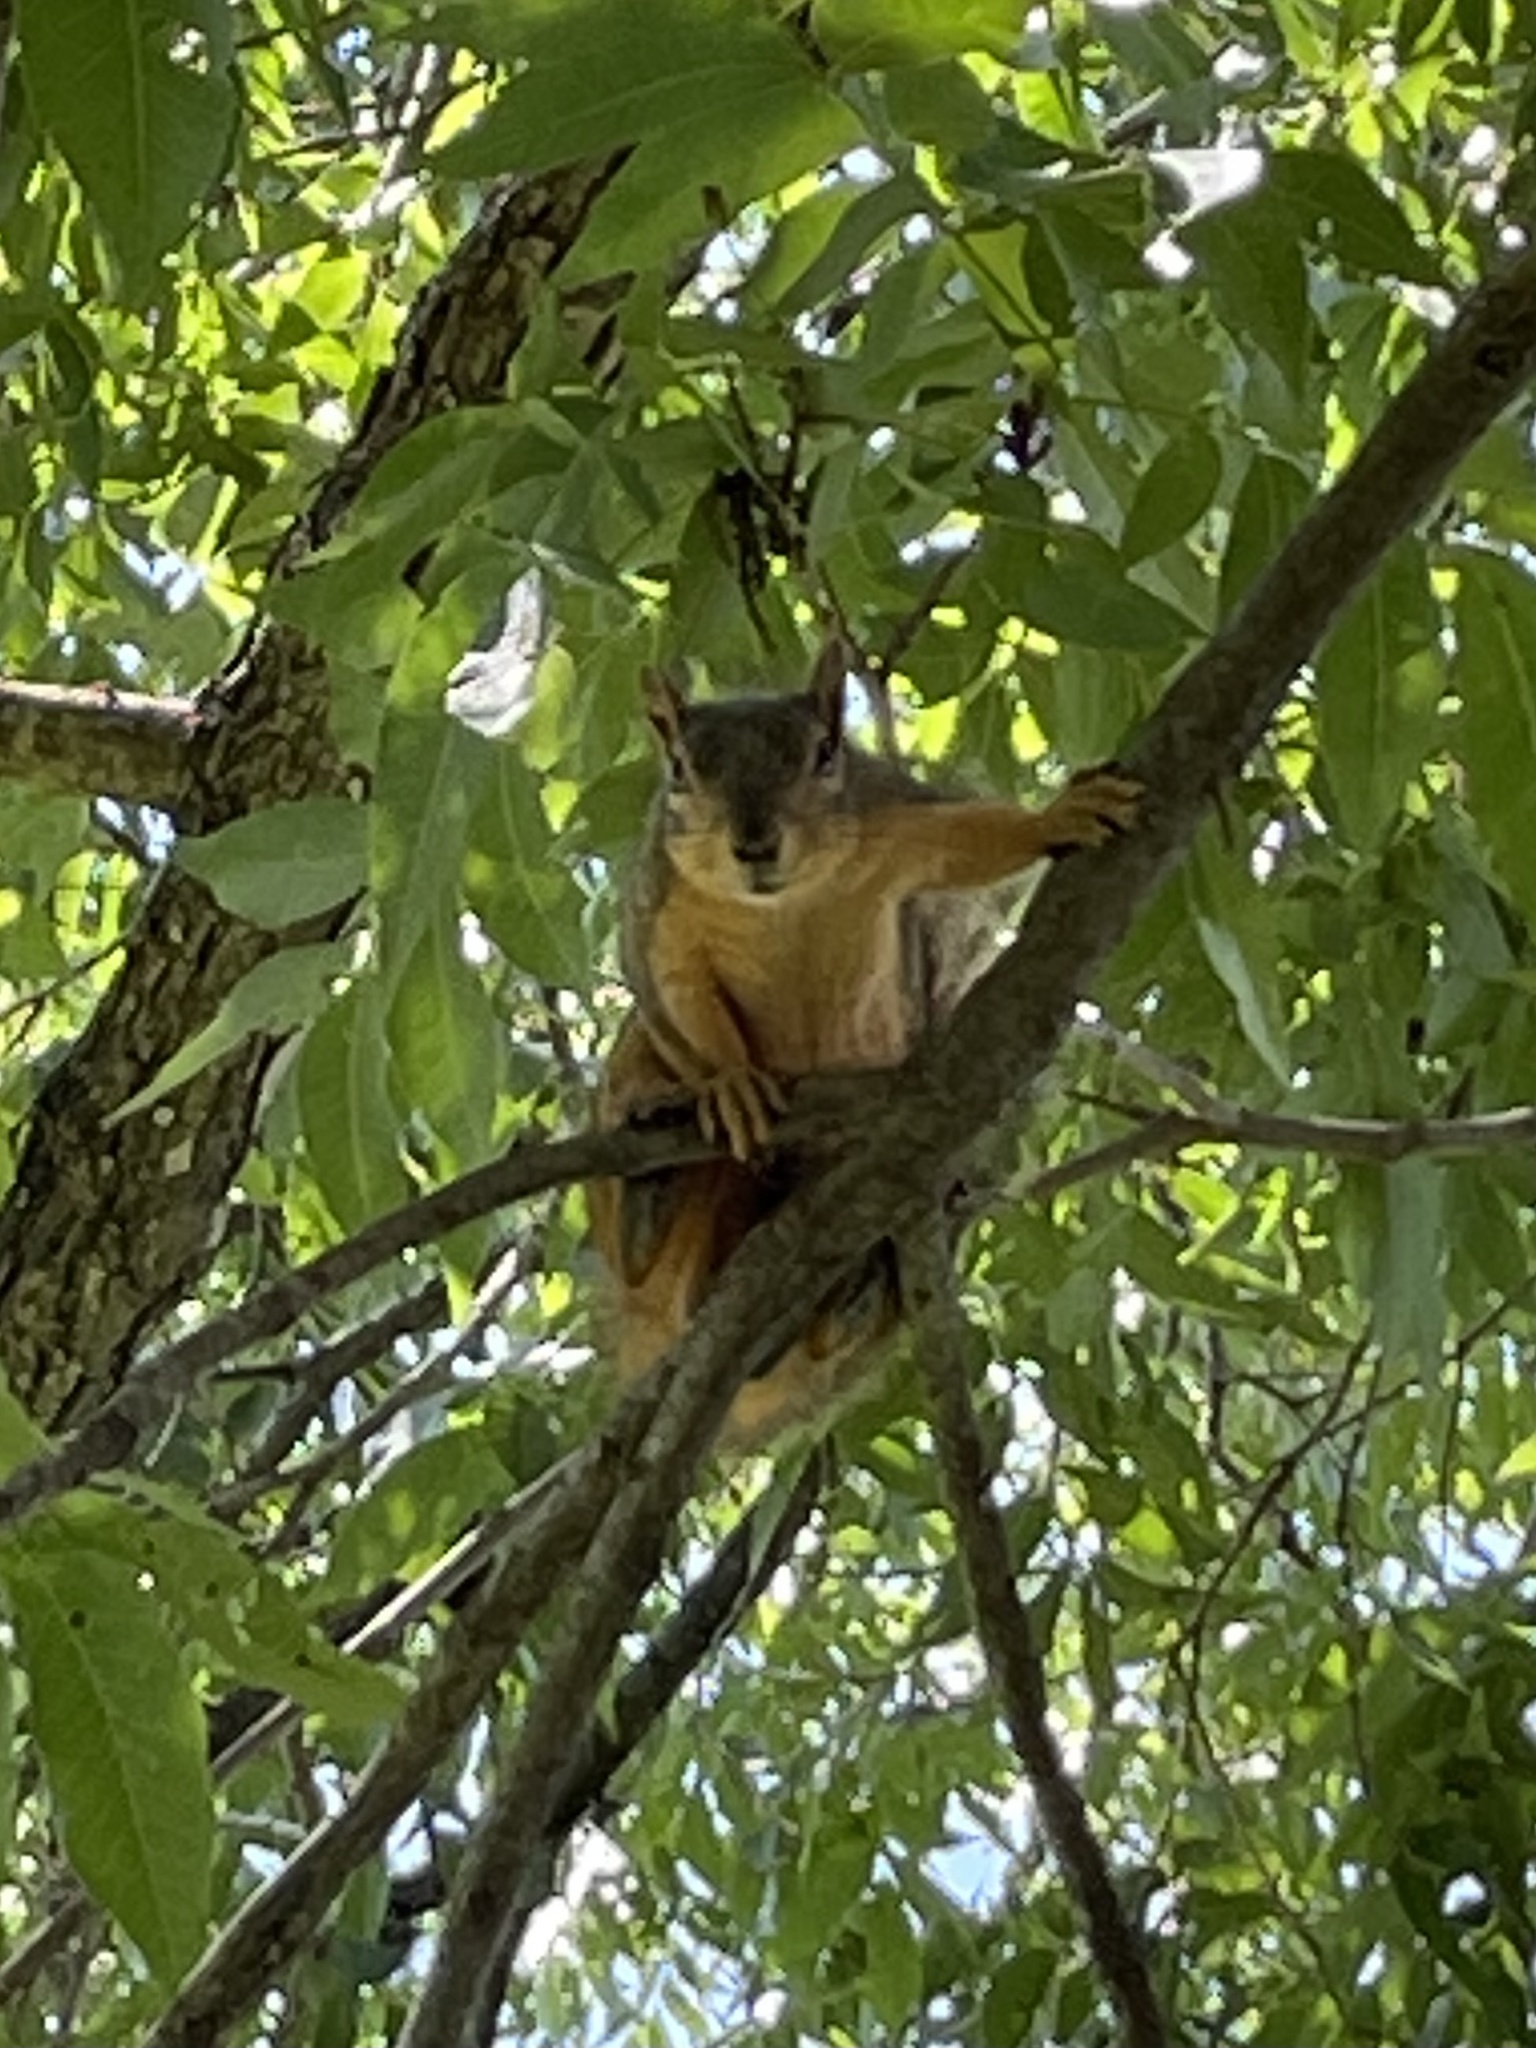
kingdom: Animalia
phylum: Chordata
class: Mammalia
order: Rodentia
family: Sciuridae
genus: Sciurus
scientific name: Sciurus niger
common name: Fox squirrel
